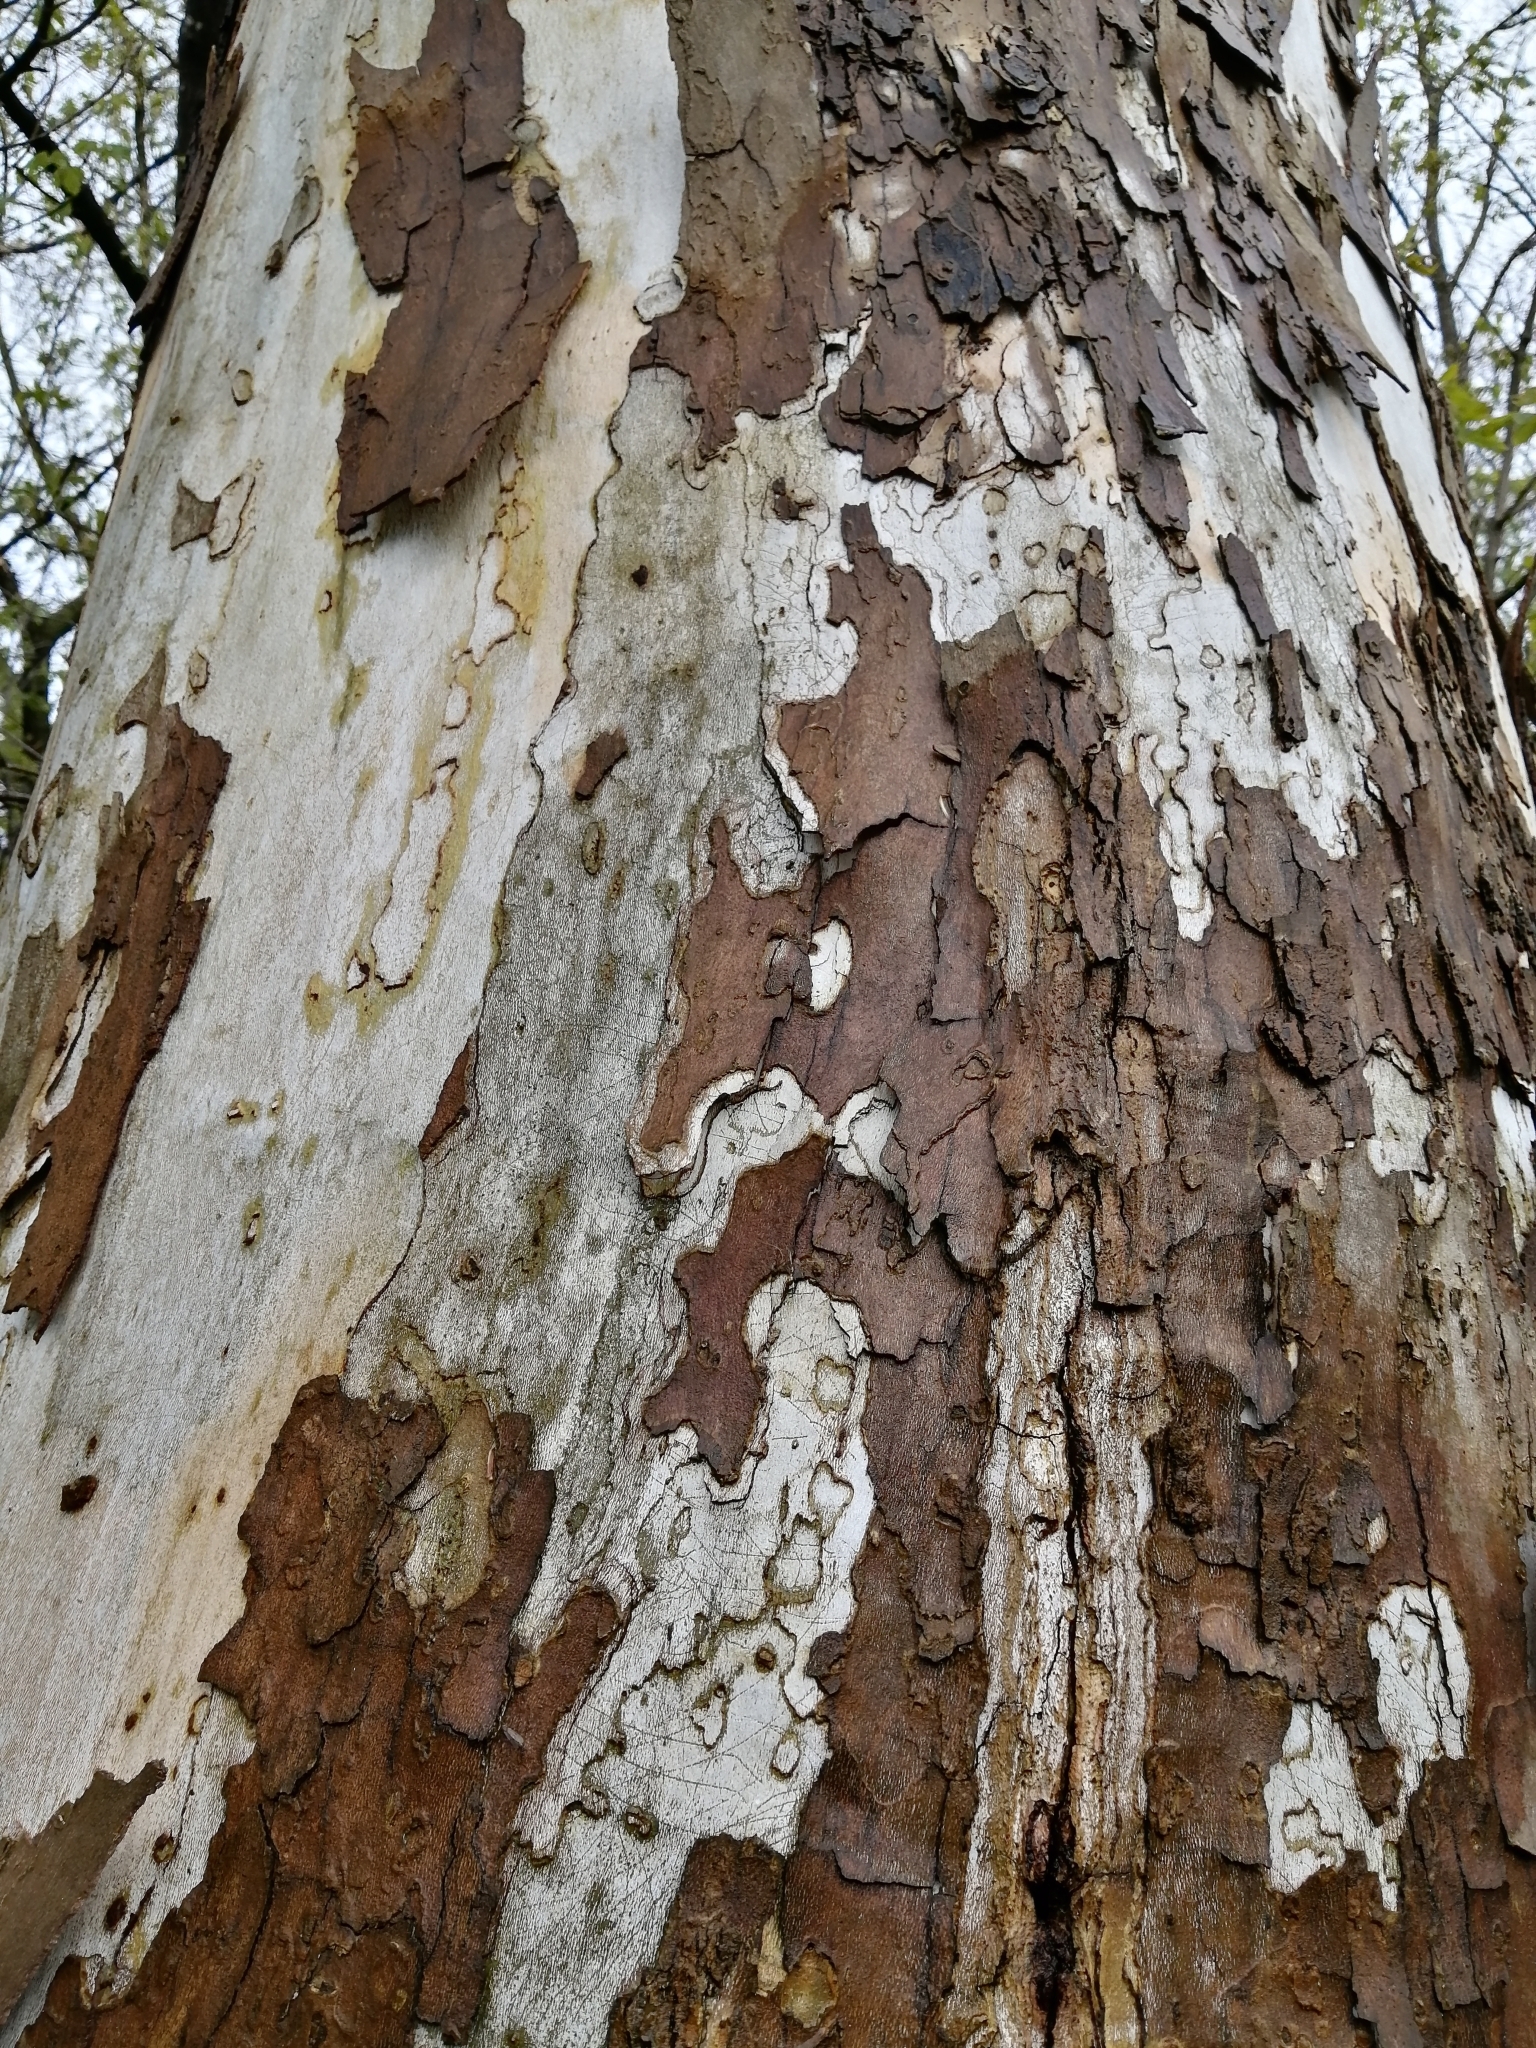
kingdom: Plantae
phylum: Tracheophyta
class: Magnoliopsida
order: Proteales
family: Platanaceae
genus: Platanus
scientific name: Platanus occidentalis
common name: American sycamore
